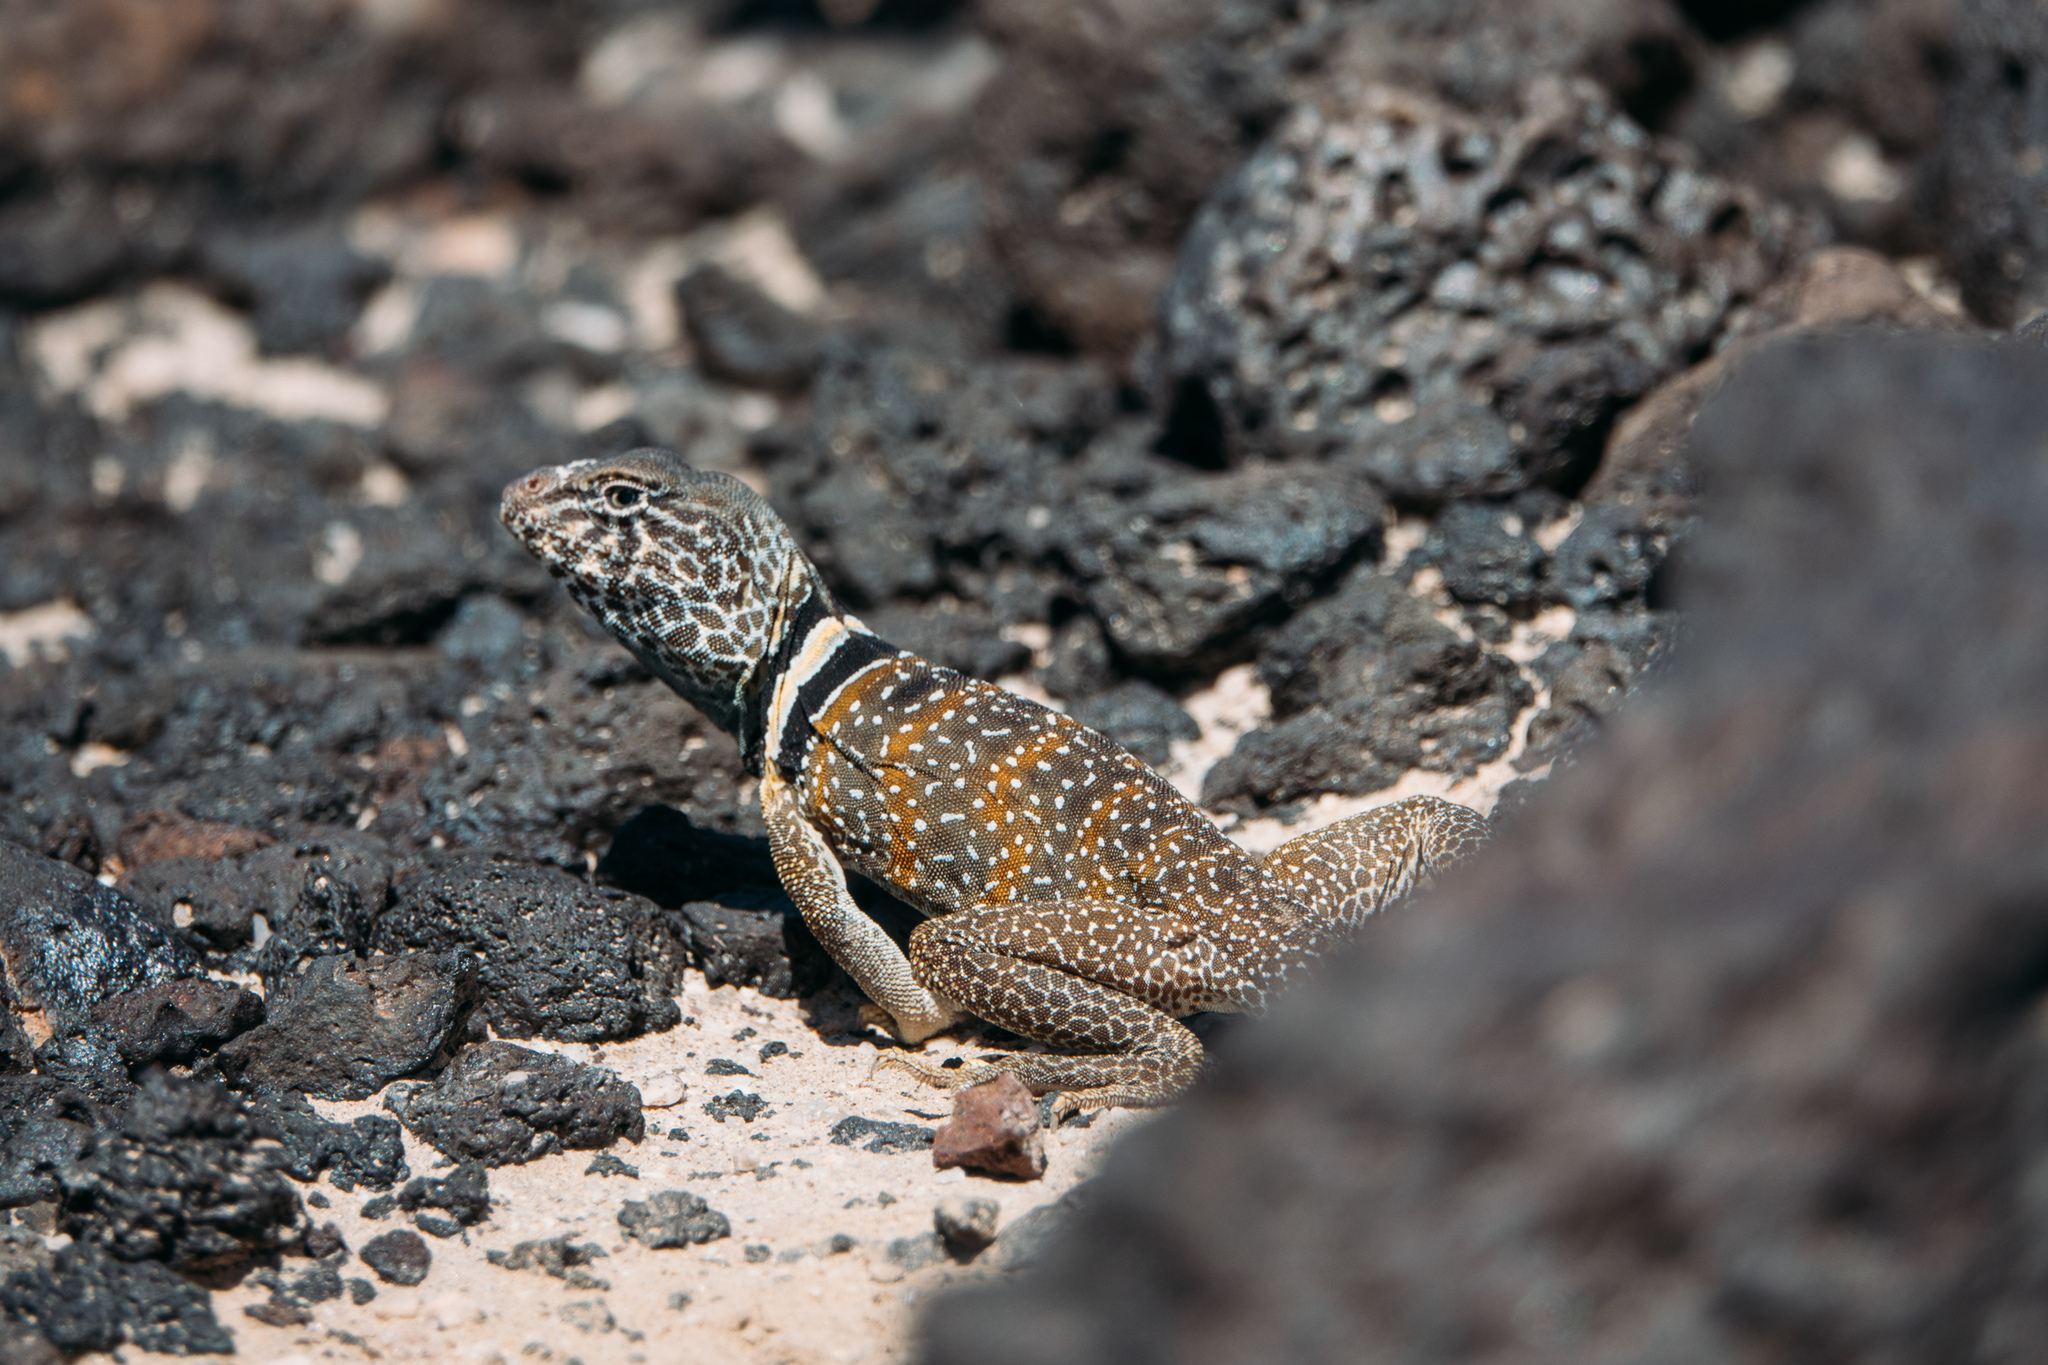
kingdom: Animalia
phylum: Chordata
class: Squamata
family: Crotaphytidae
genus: Crotaphytus
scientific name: Crotaphytus bicinctores
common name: Mojave black-collared lizard
